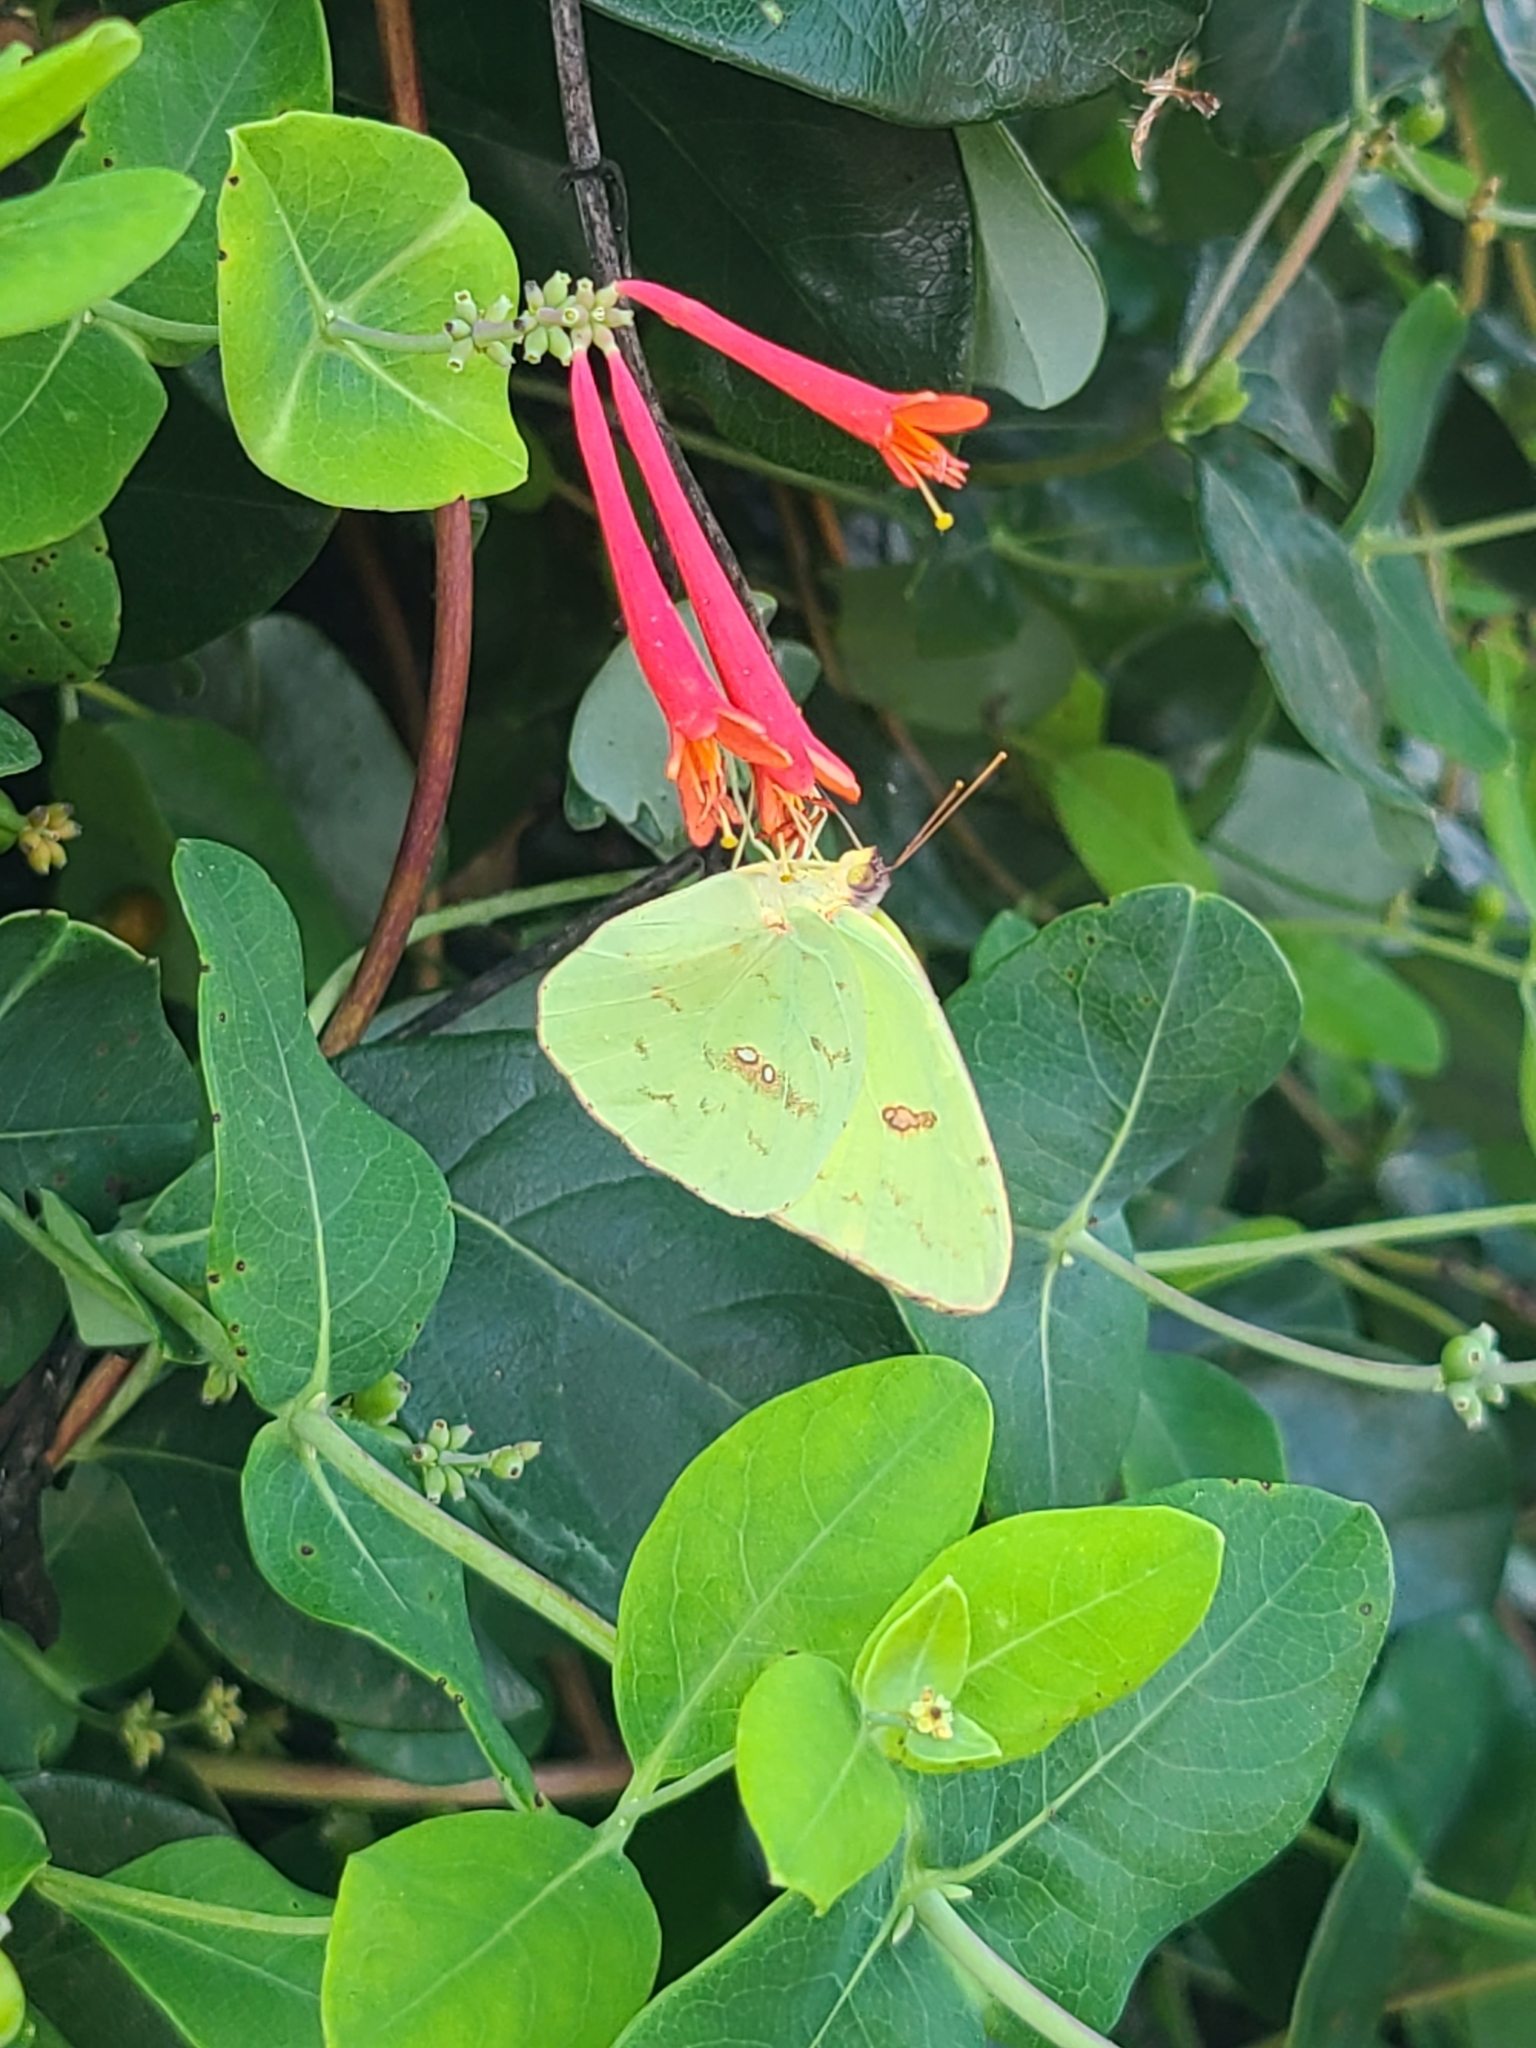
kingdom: Animalia
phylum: Arthropoda
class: Insecta
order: Lepidoptera
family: Pieridae
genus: Phoebis
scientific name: Phoebis sennae
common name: Cloudless sulphur
